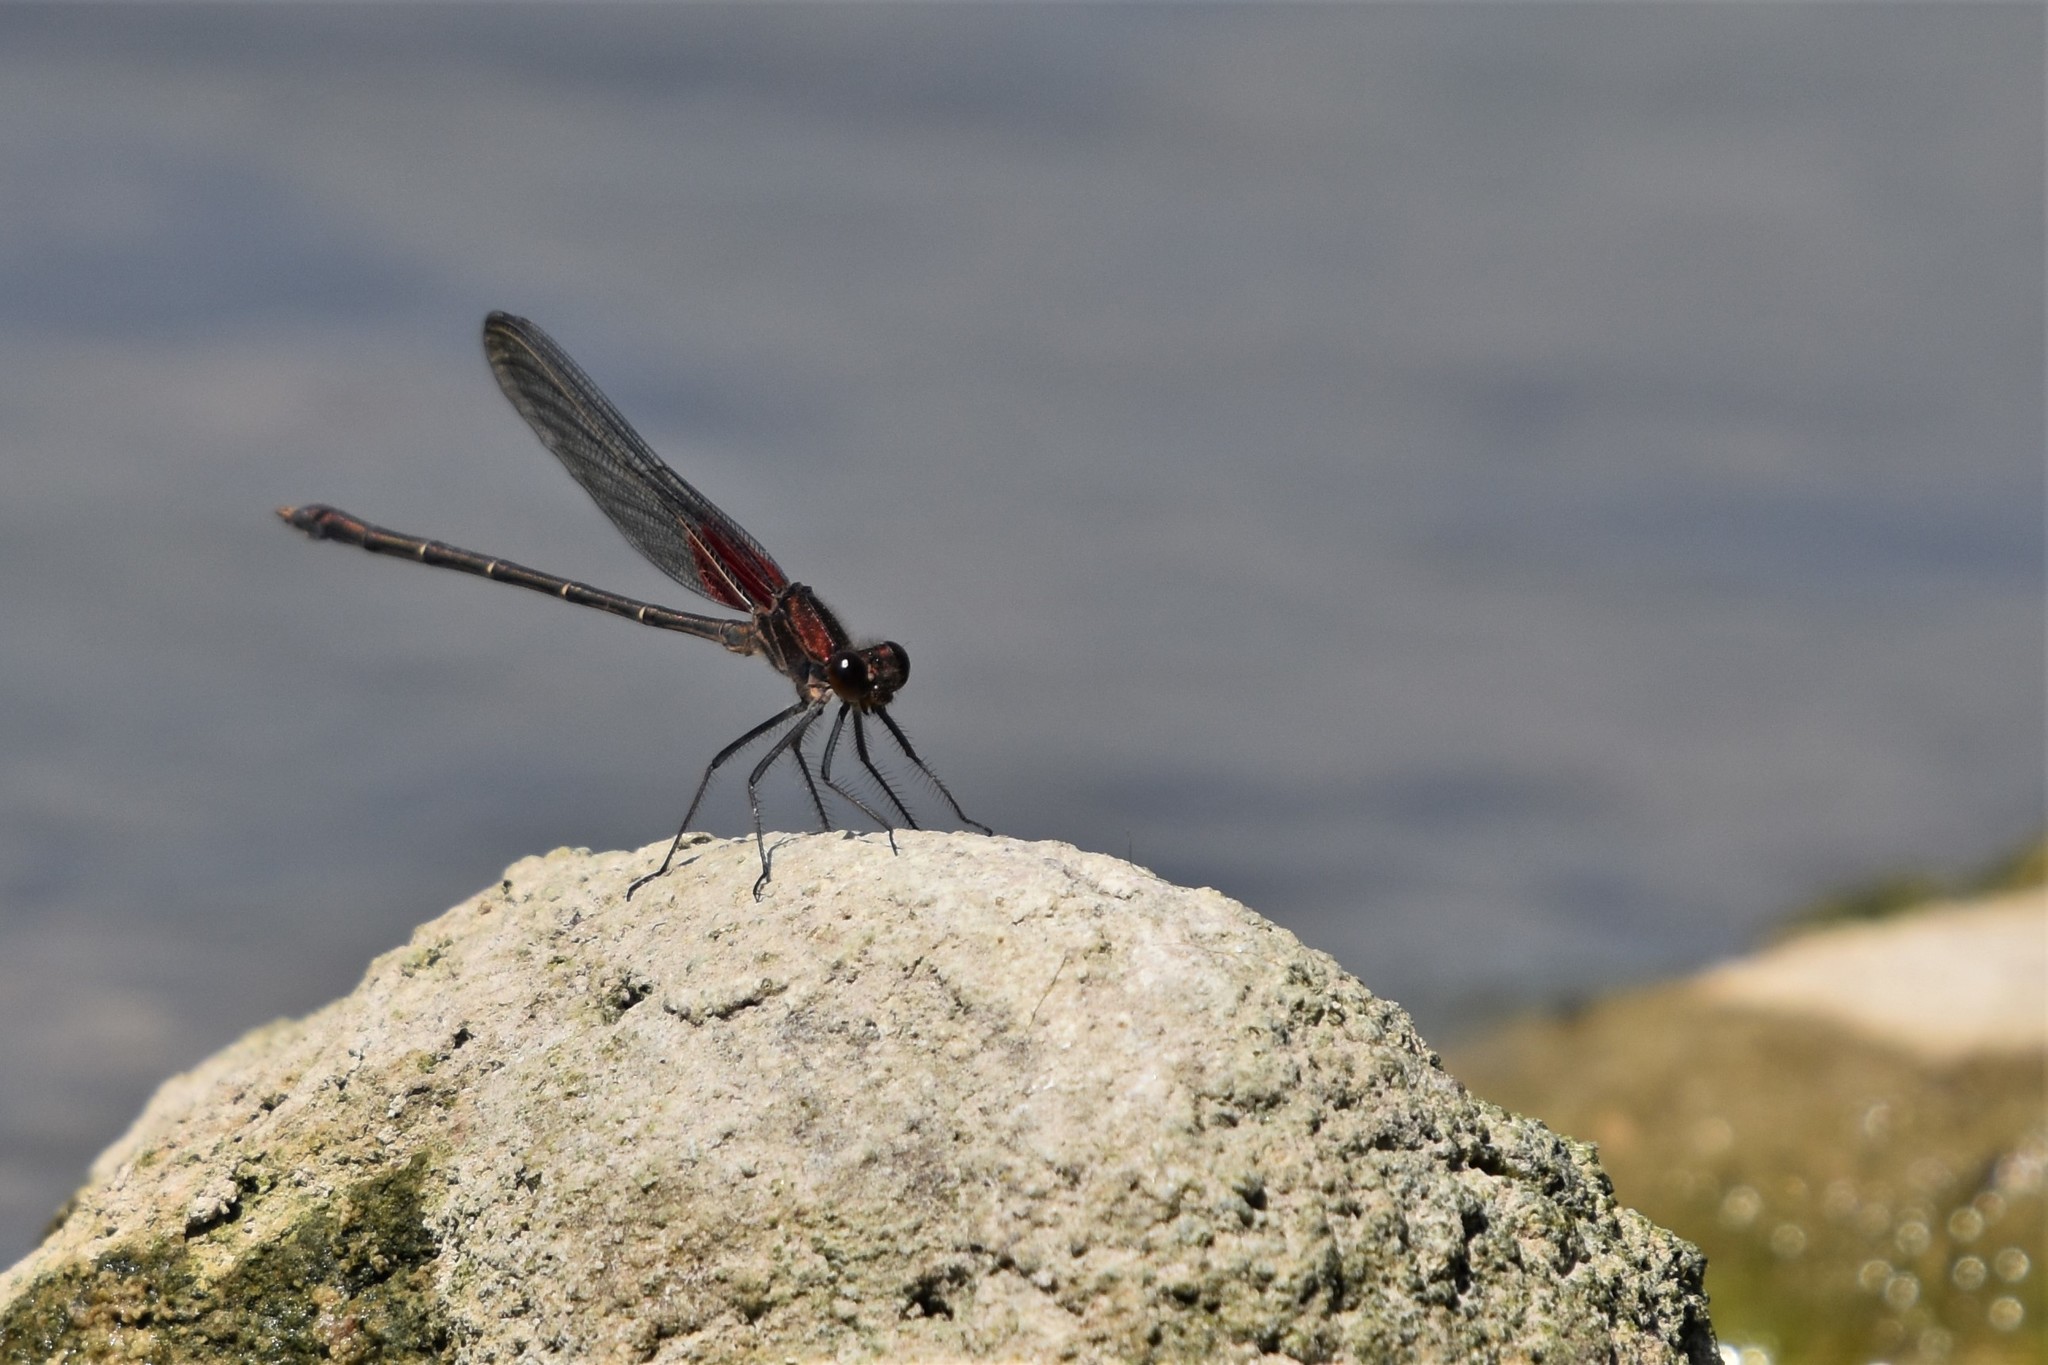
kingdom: Animalia
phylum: Arthropoda
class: Insecta
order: Odonata
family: Calopterygidae
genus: Hetaerina
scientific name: Hetaerina americana
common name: American rubyspot
